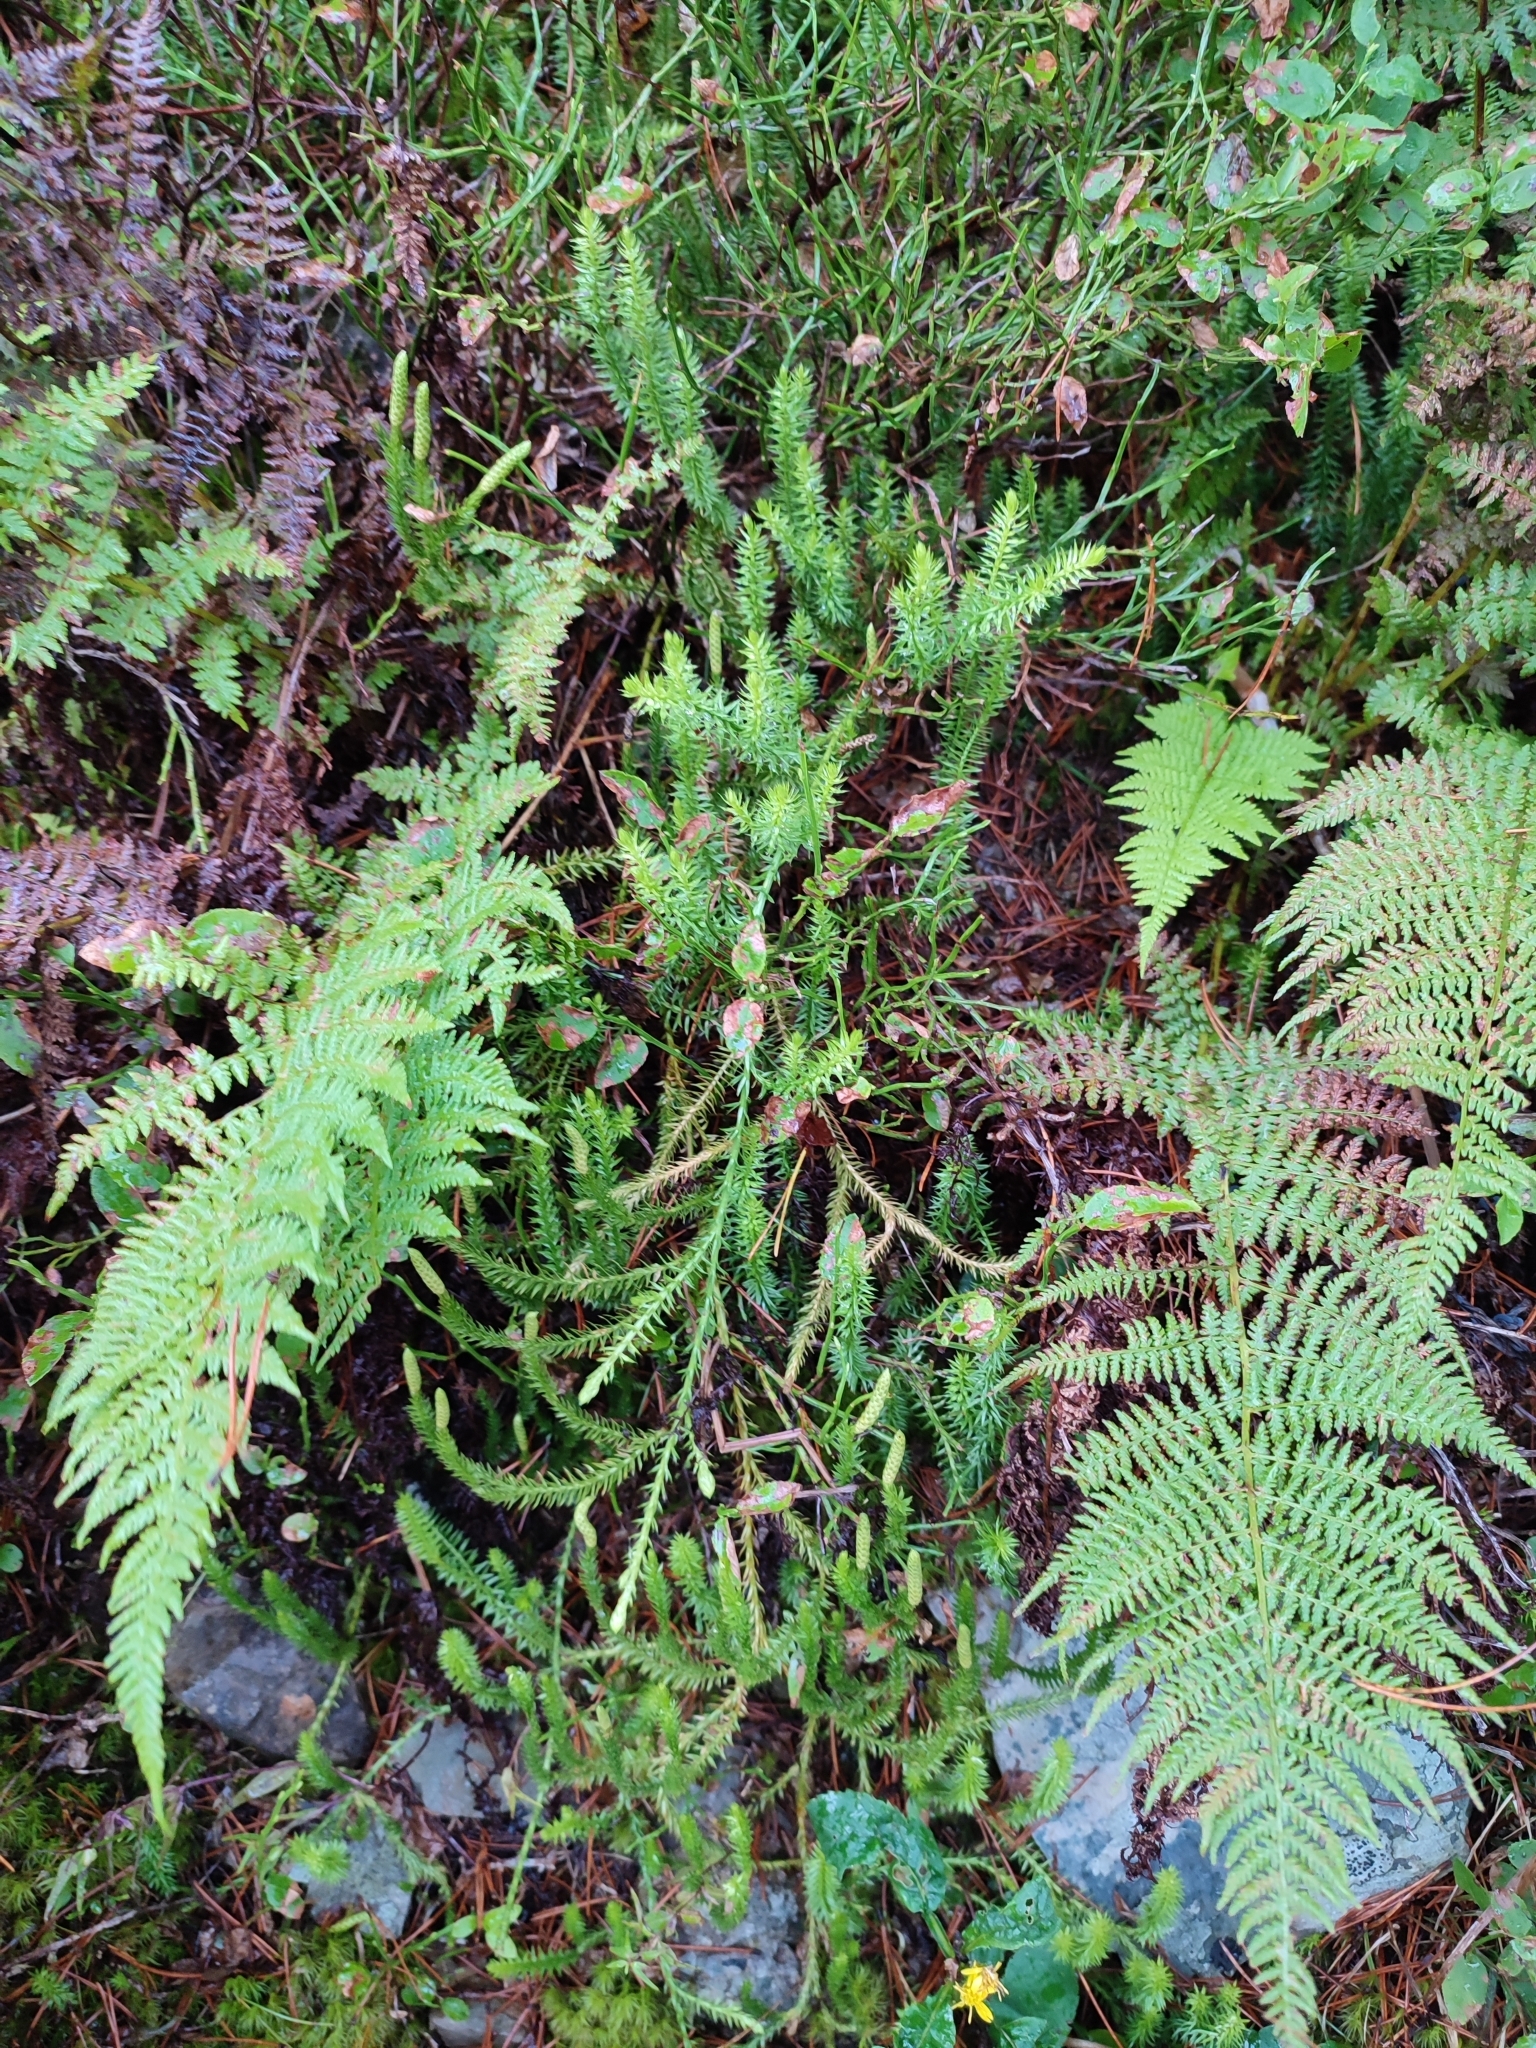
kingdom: Plantae
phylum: Tracheophyta
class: Lycopodiopsida
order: Lycopodiales
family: Lycopodiaceae
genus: Spinulum
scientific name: Spinulum annotinum
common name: Interrupted club-moss
